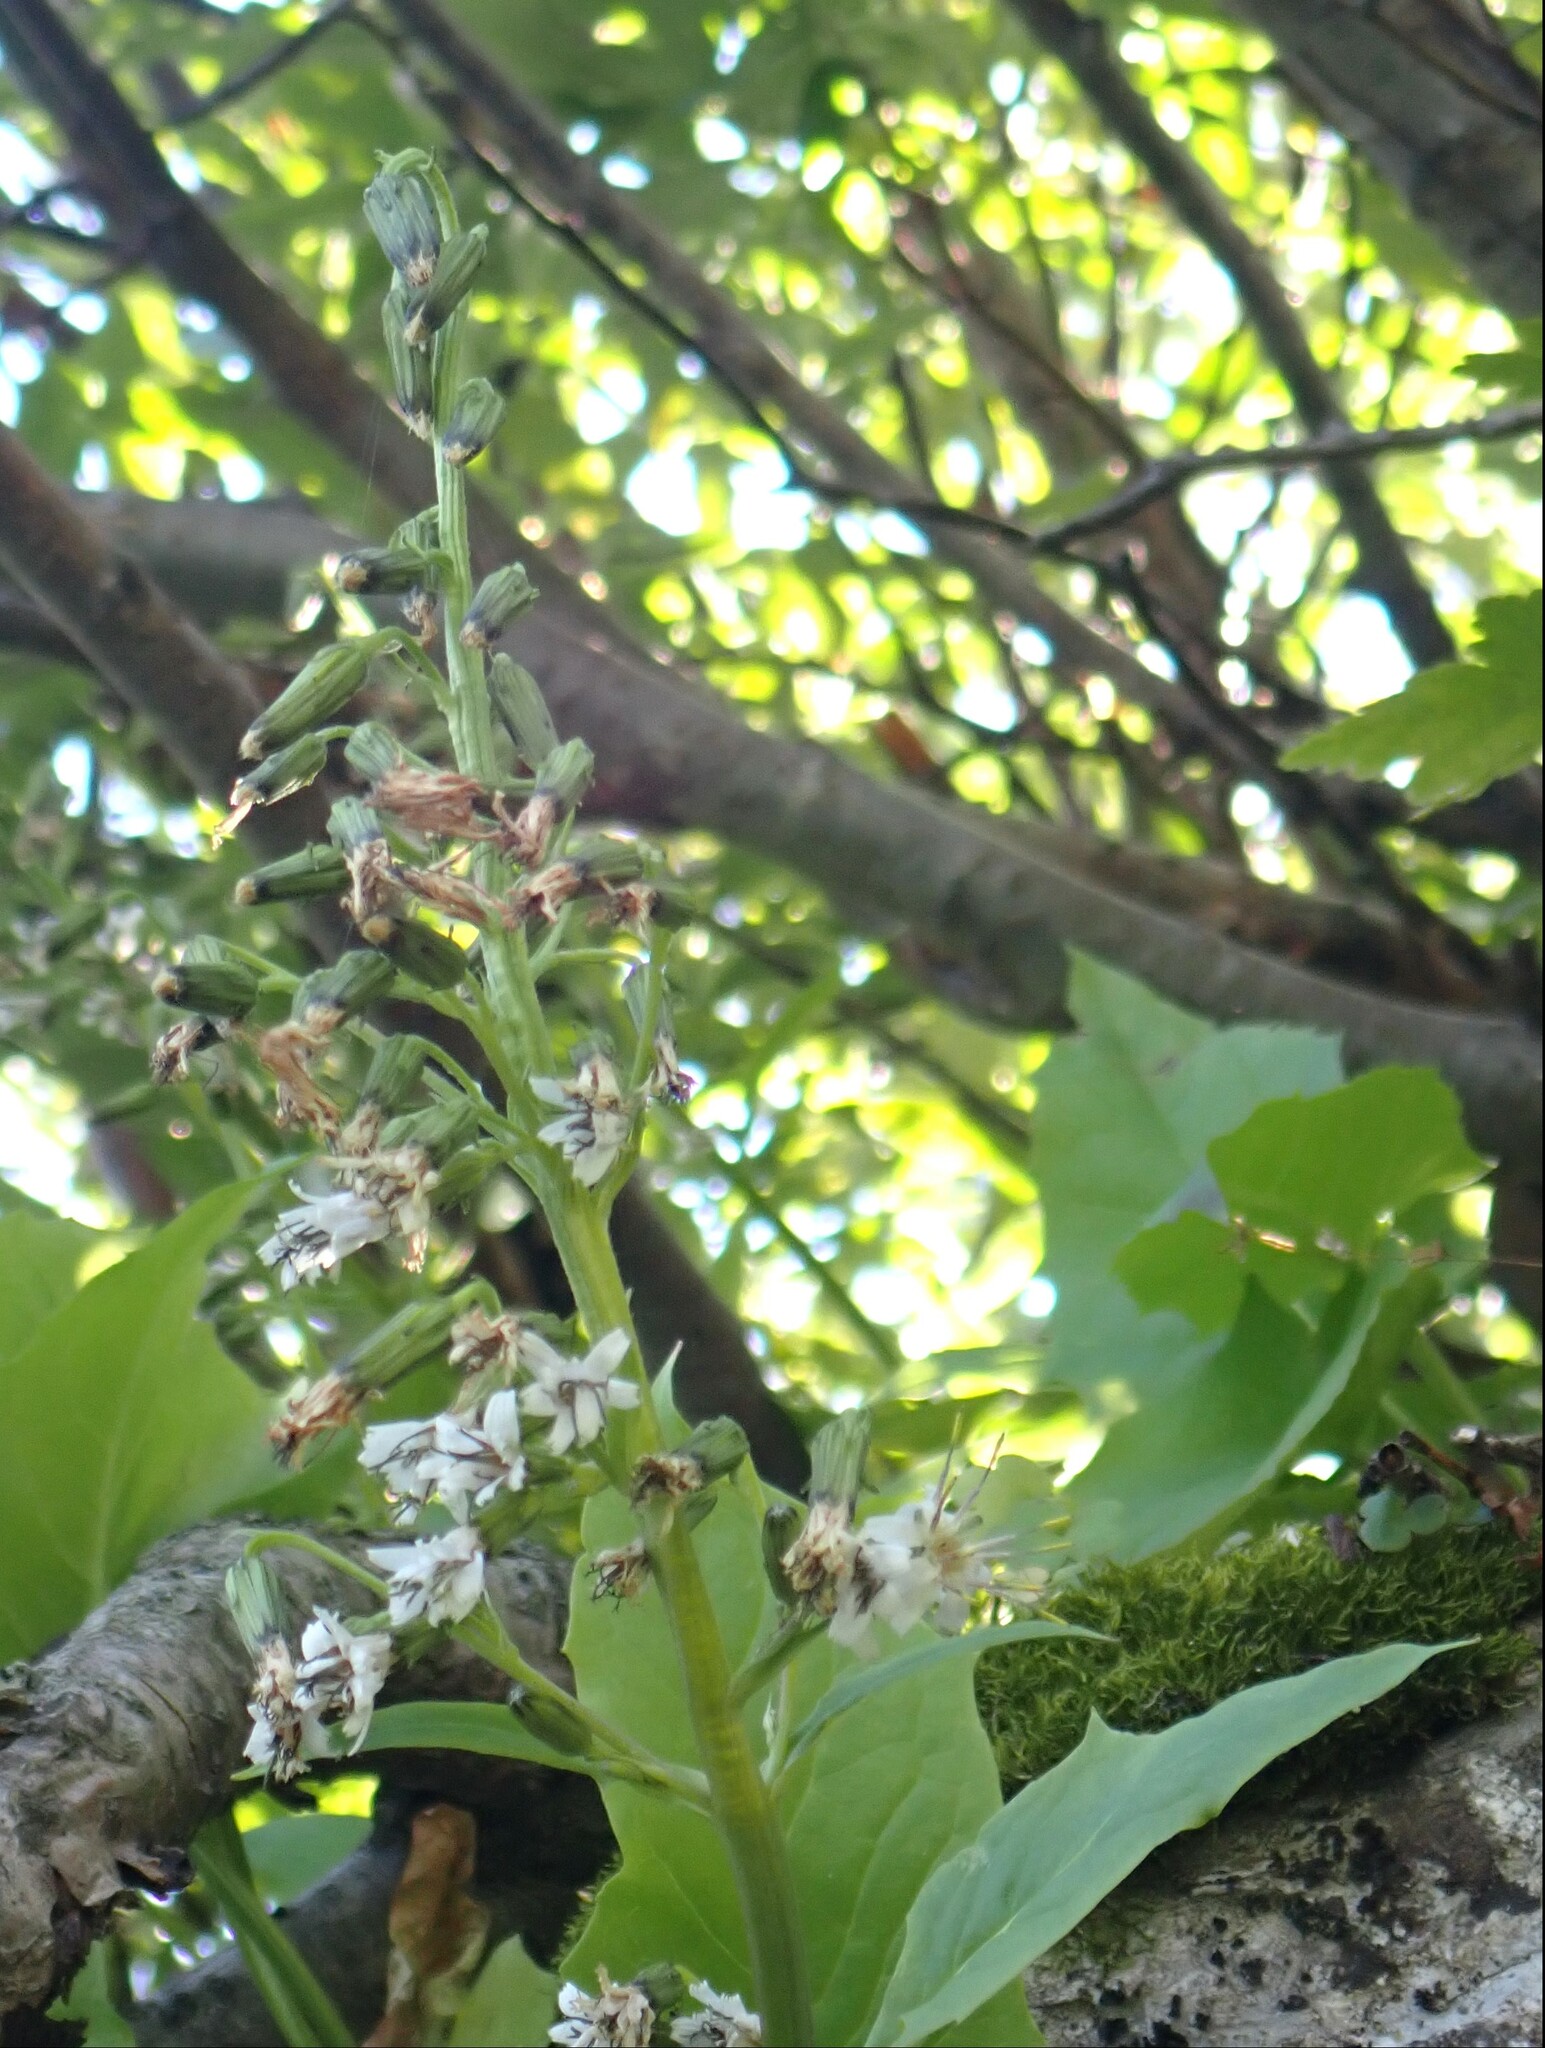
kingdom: Plantae
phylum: Tracheophyta
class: Magnoliopsida
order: Asterales
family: Asteraceae
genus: Nabalus
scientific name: Nabalus sagittatus
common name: Arrowleaf snakeroot
